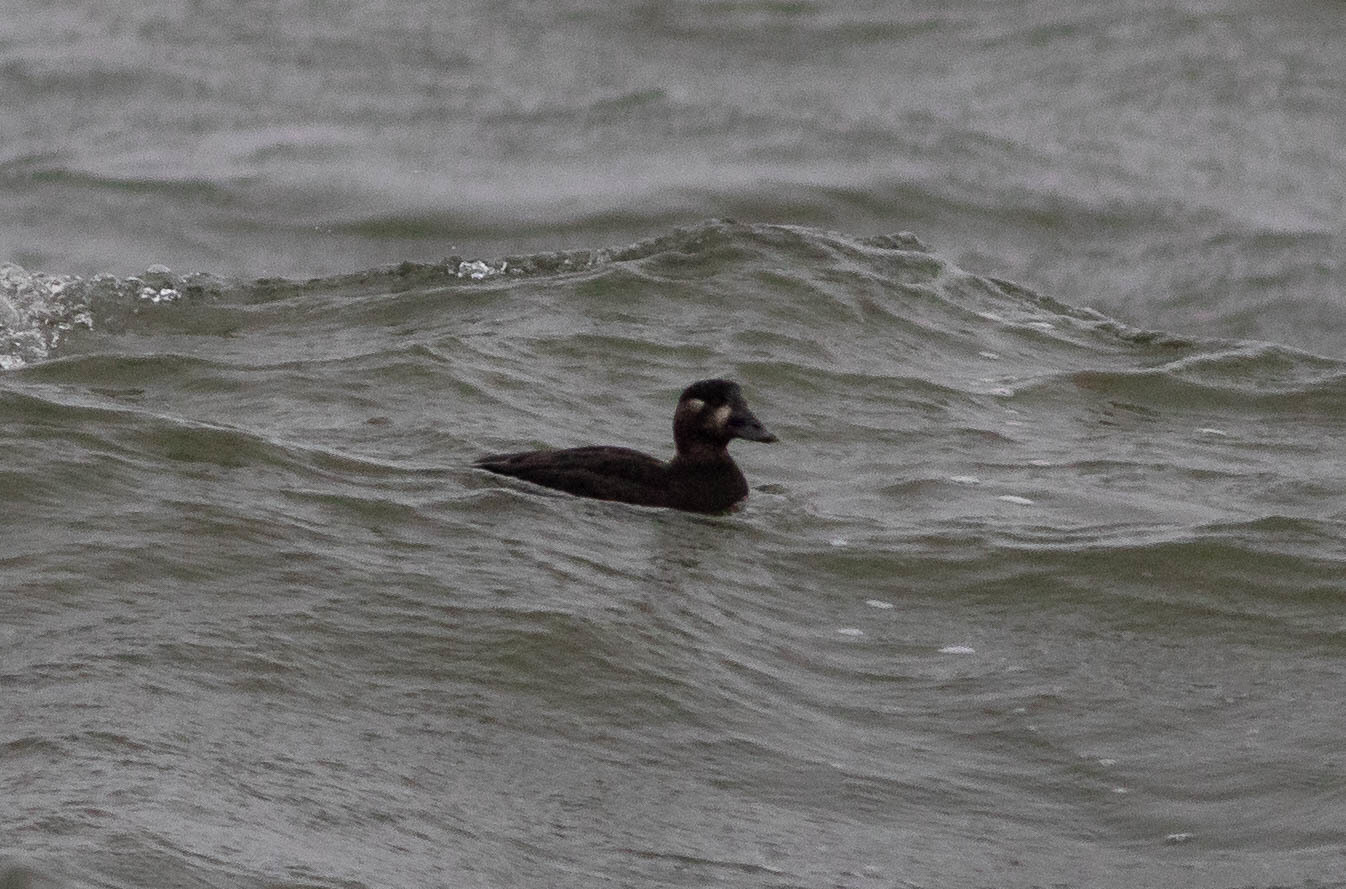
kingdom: Animalia
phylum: Chordata
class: Aves
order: Anseriformes
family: Anatidae
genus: Melanitta
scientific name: Melanitta perspicillata
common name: Surf scoter
